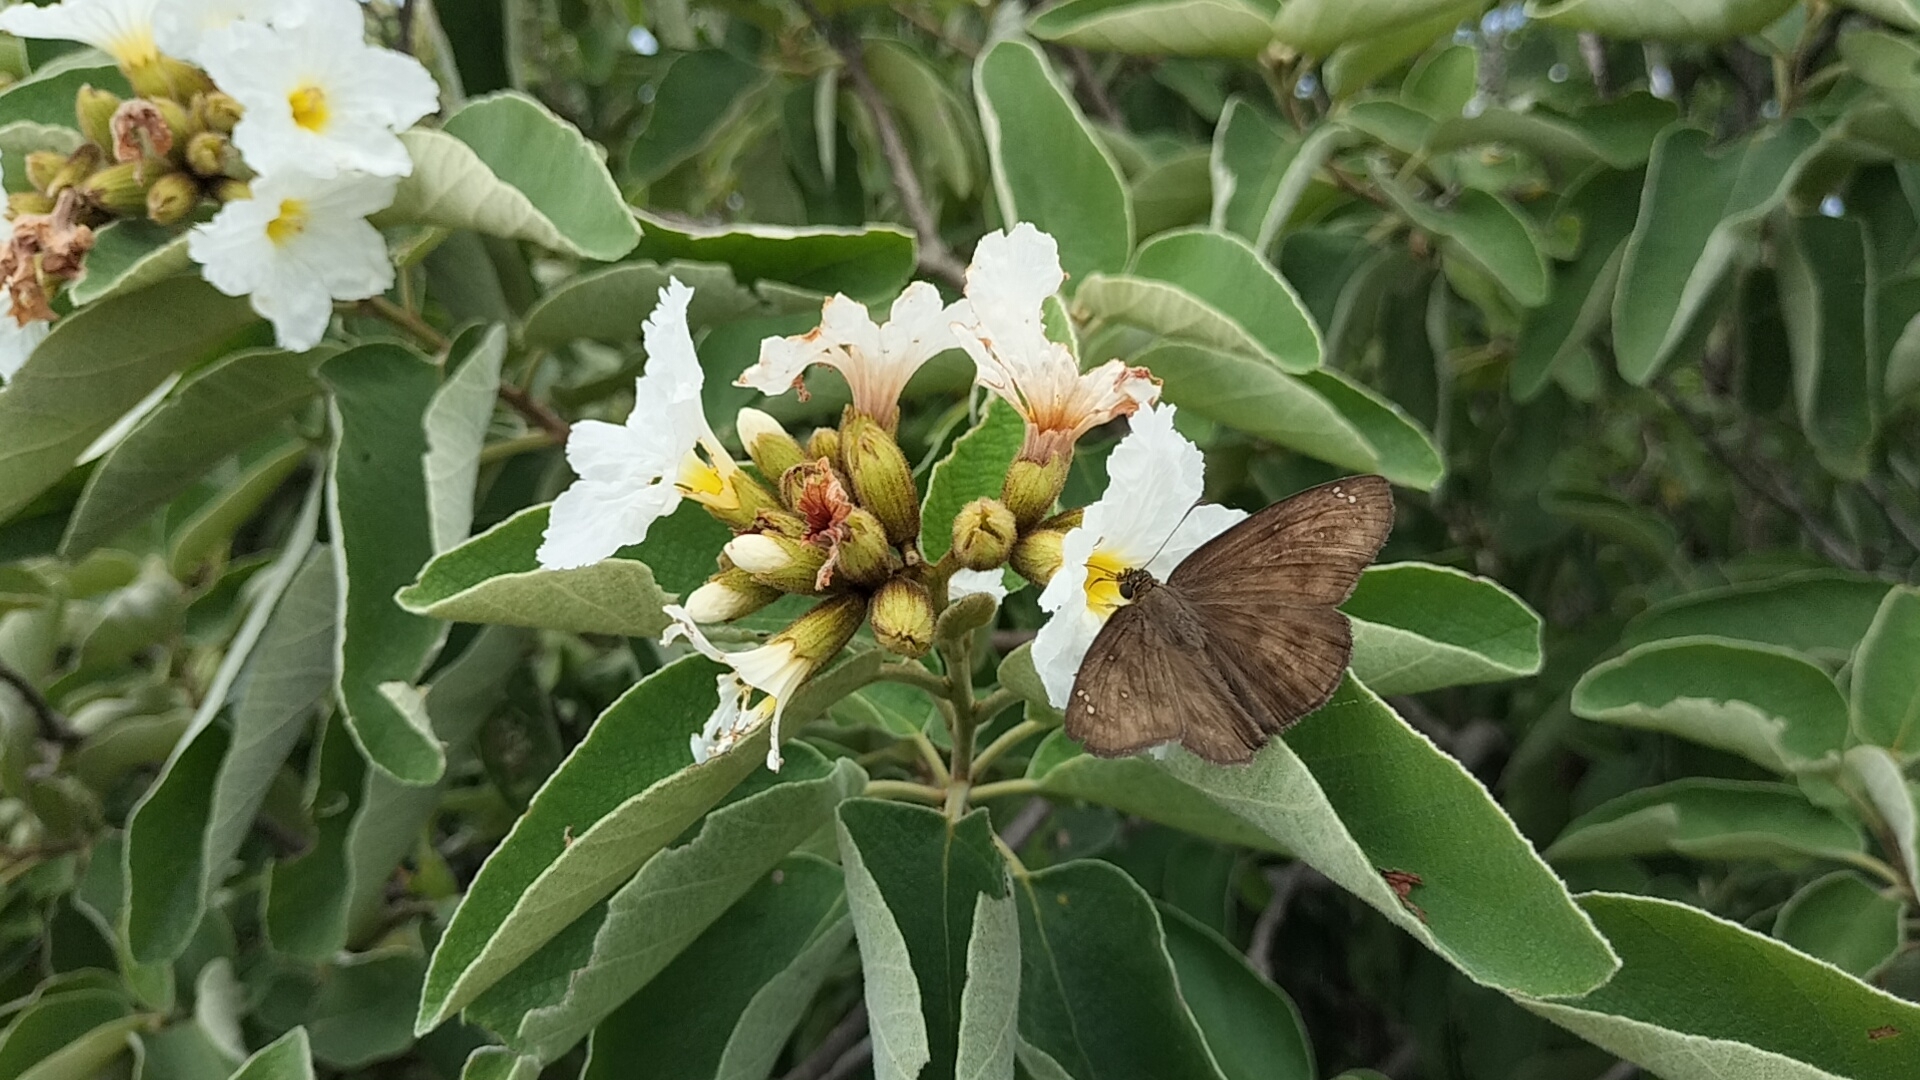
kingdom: Animalia
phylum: Arthropoda
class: Insecta
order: Lepidoptera
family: Hesperiidae
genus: Grais
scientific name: Grais stigmaticus
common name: Hermit skipper
